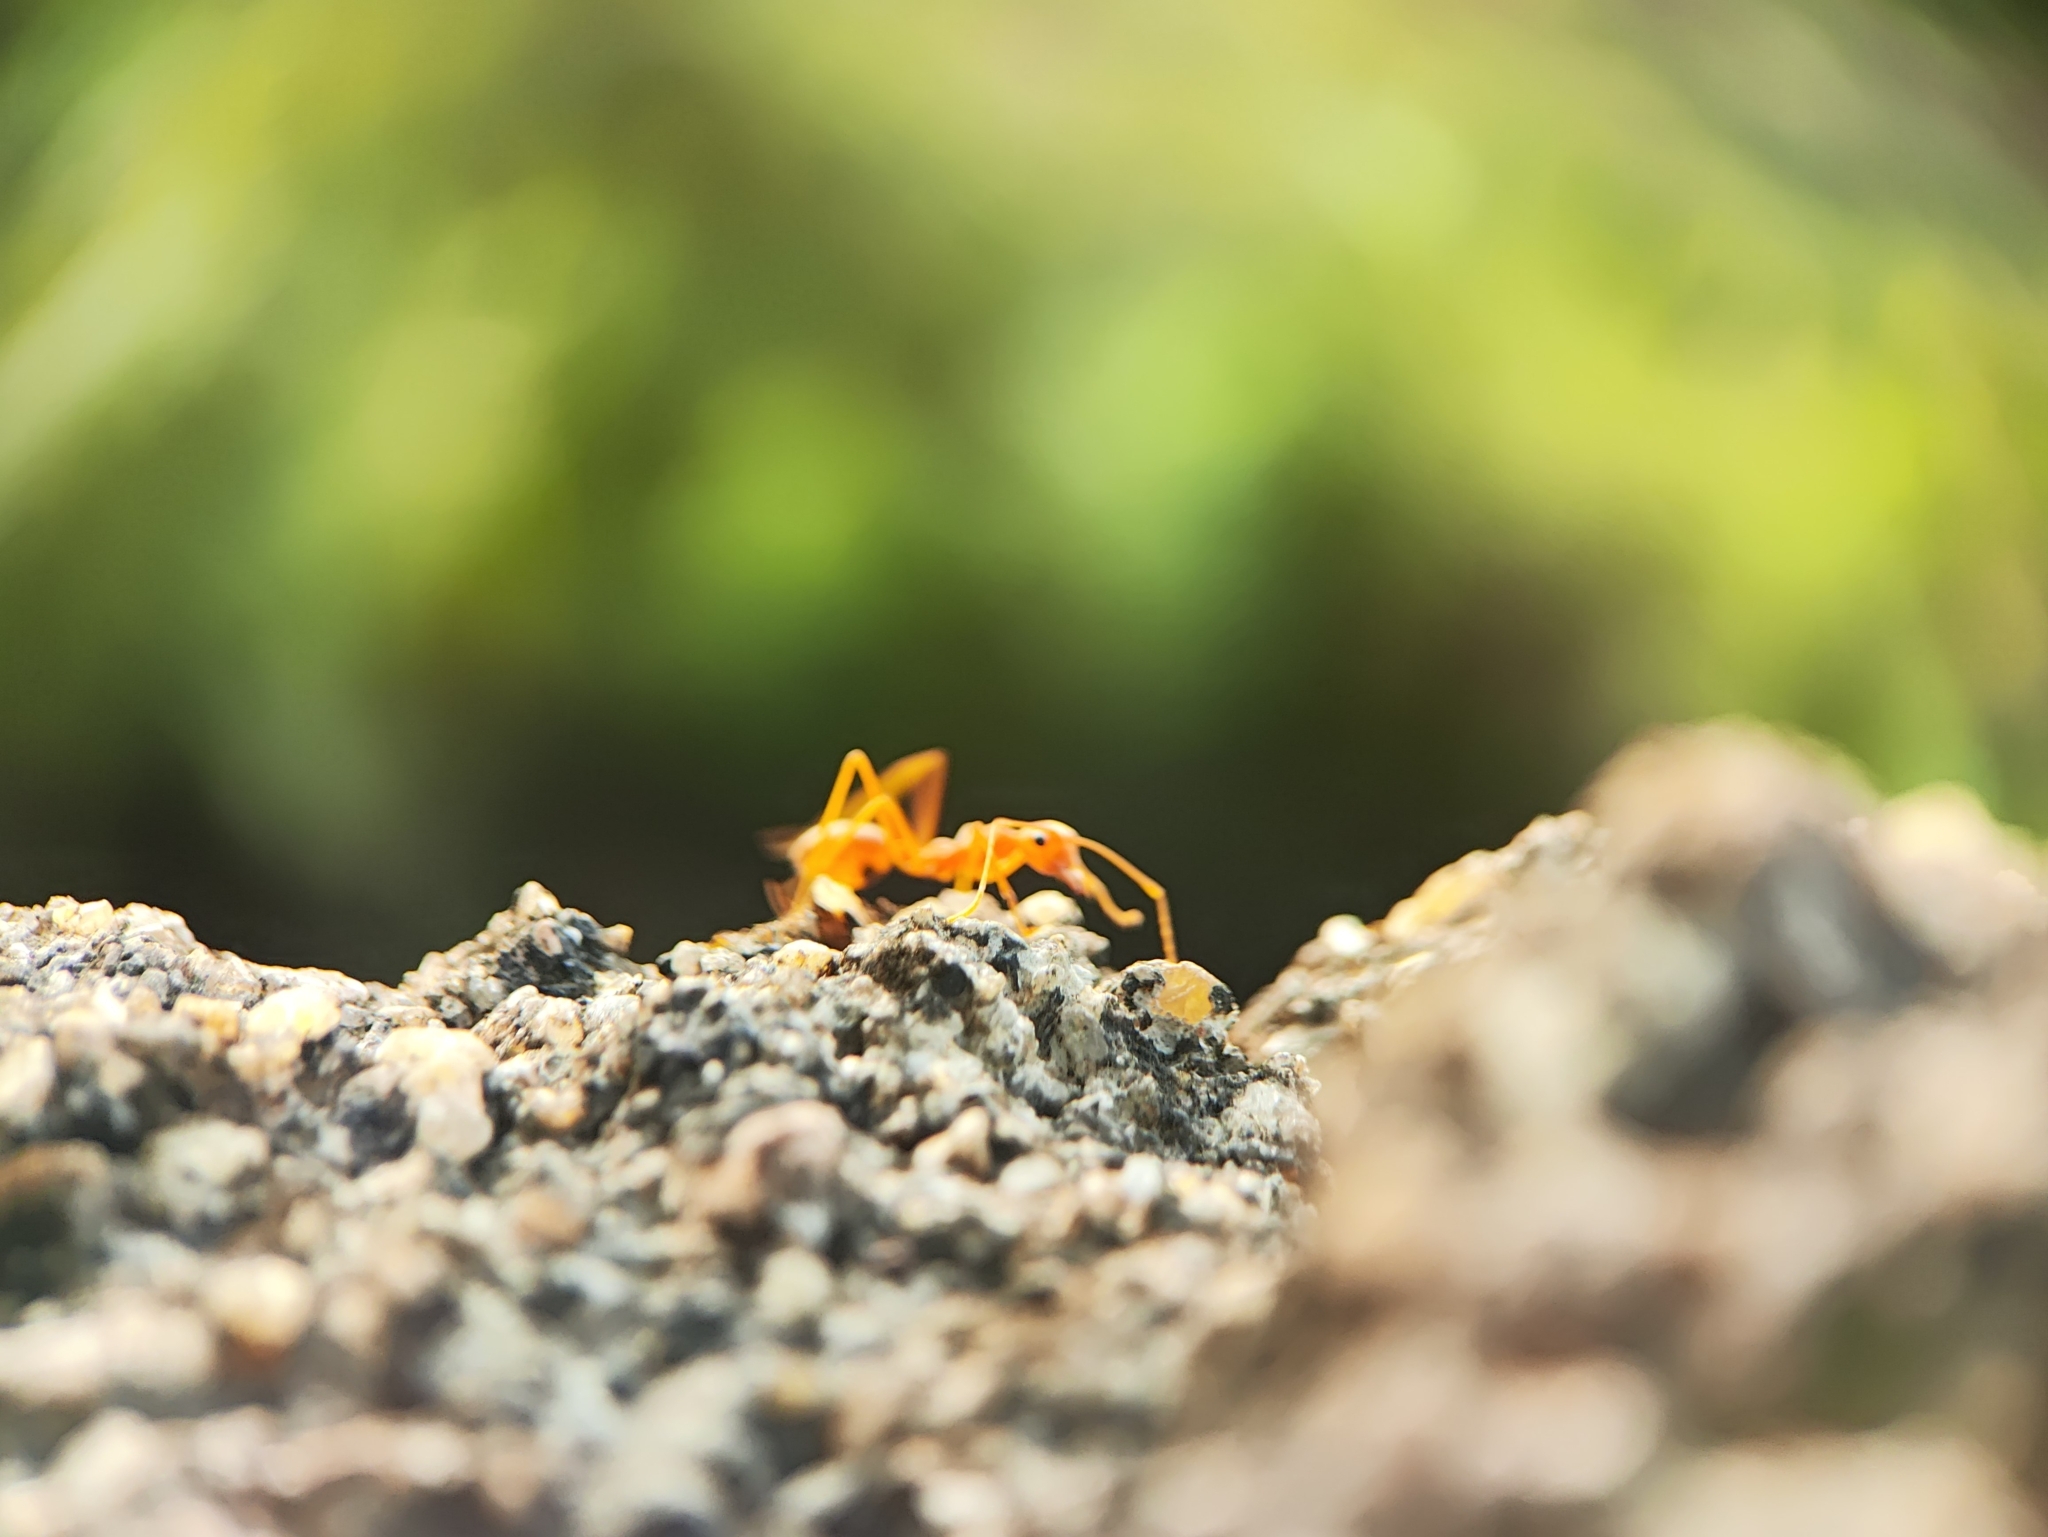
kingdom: Animalia
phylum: Arthropoda
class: Insecta
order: Hymenoptera
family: Formicidae
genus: Oecophylla
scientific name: Oecophylla smaragdina
